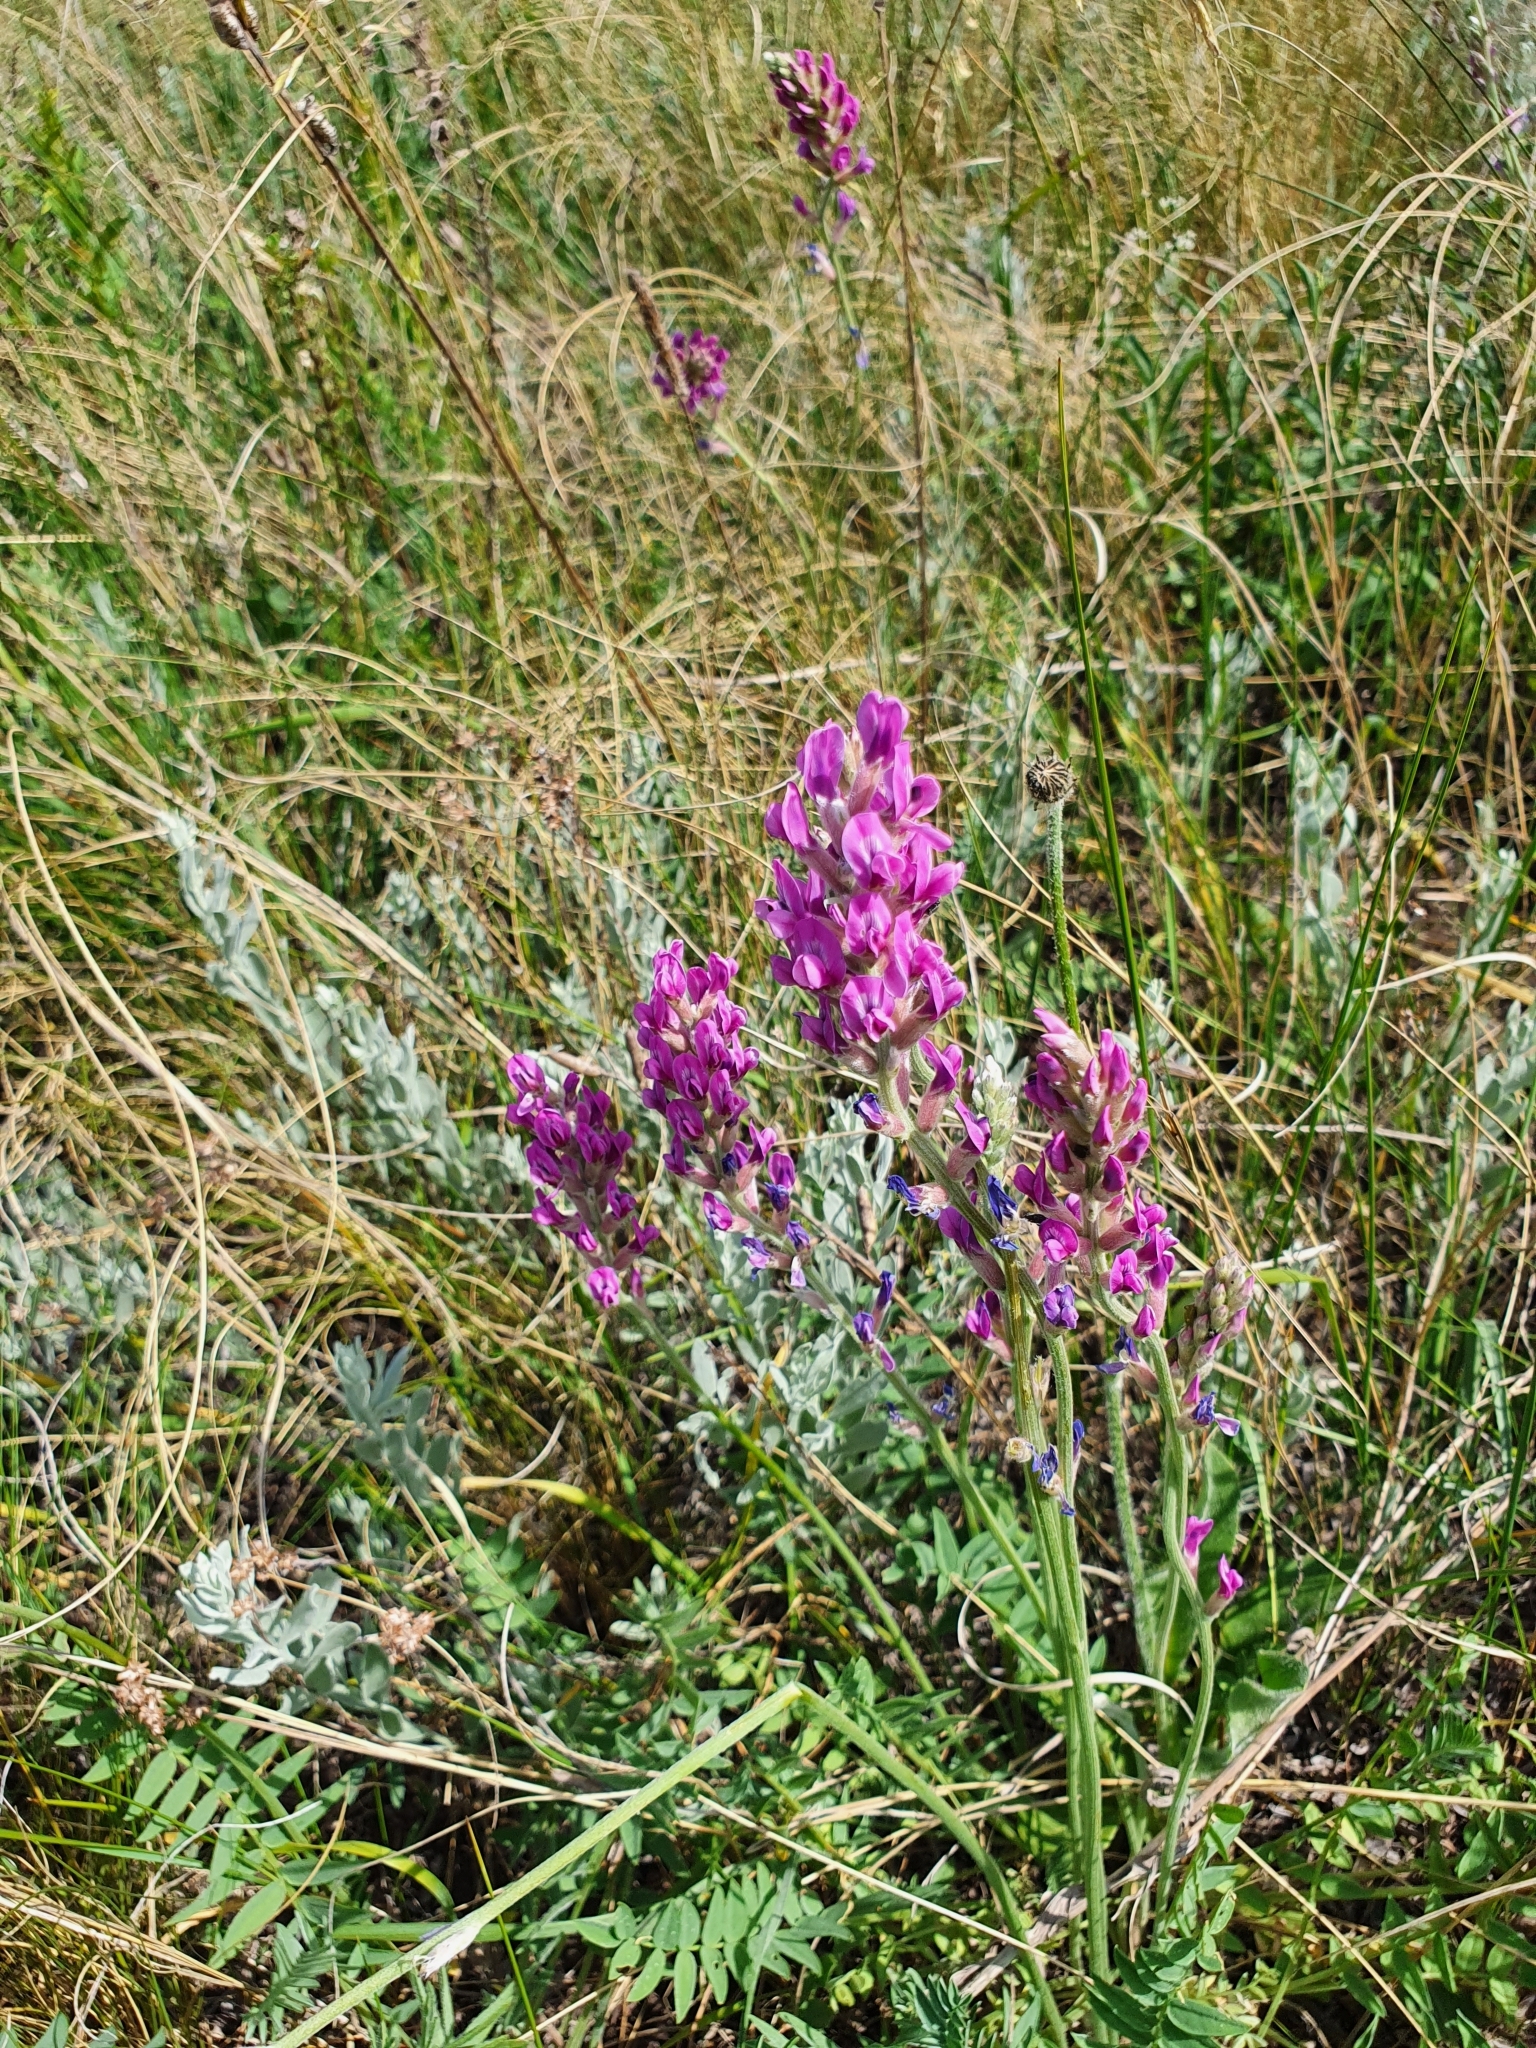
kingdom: Plantae
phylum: Tracheophyta
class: Magnoliopsida
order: Fabales
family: Fabaceae
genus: Oxytropis
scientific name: Oxytropis knjazevii
